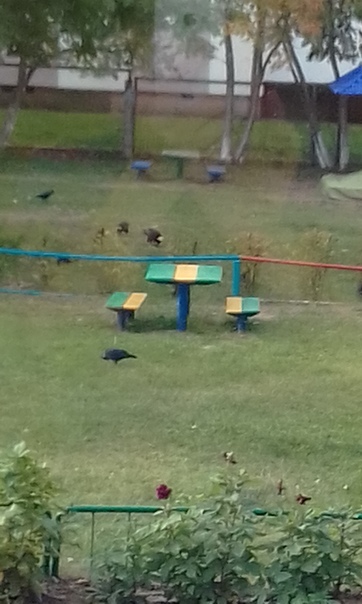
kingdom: Animalia
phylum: Chordata
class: Aves
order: Passeriformes
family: Corvidae
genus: Coloeus
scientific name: Coloeus monedula
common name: Western jackdaw
